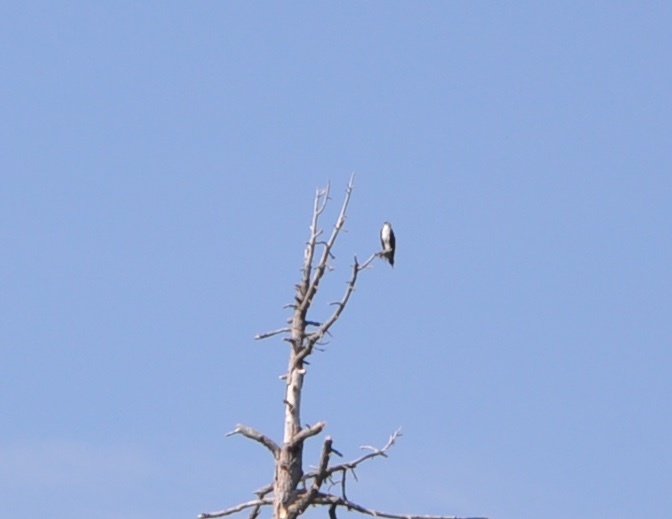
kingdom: Animalia
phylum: Chordata
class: Aves
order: Accipitriformes
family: Pandionidae
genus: Pandion
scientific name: Pandion haliaetus
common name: Osprey
